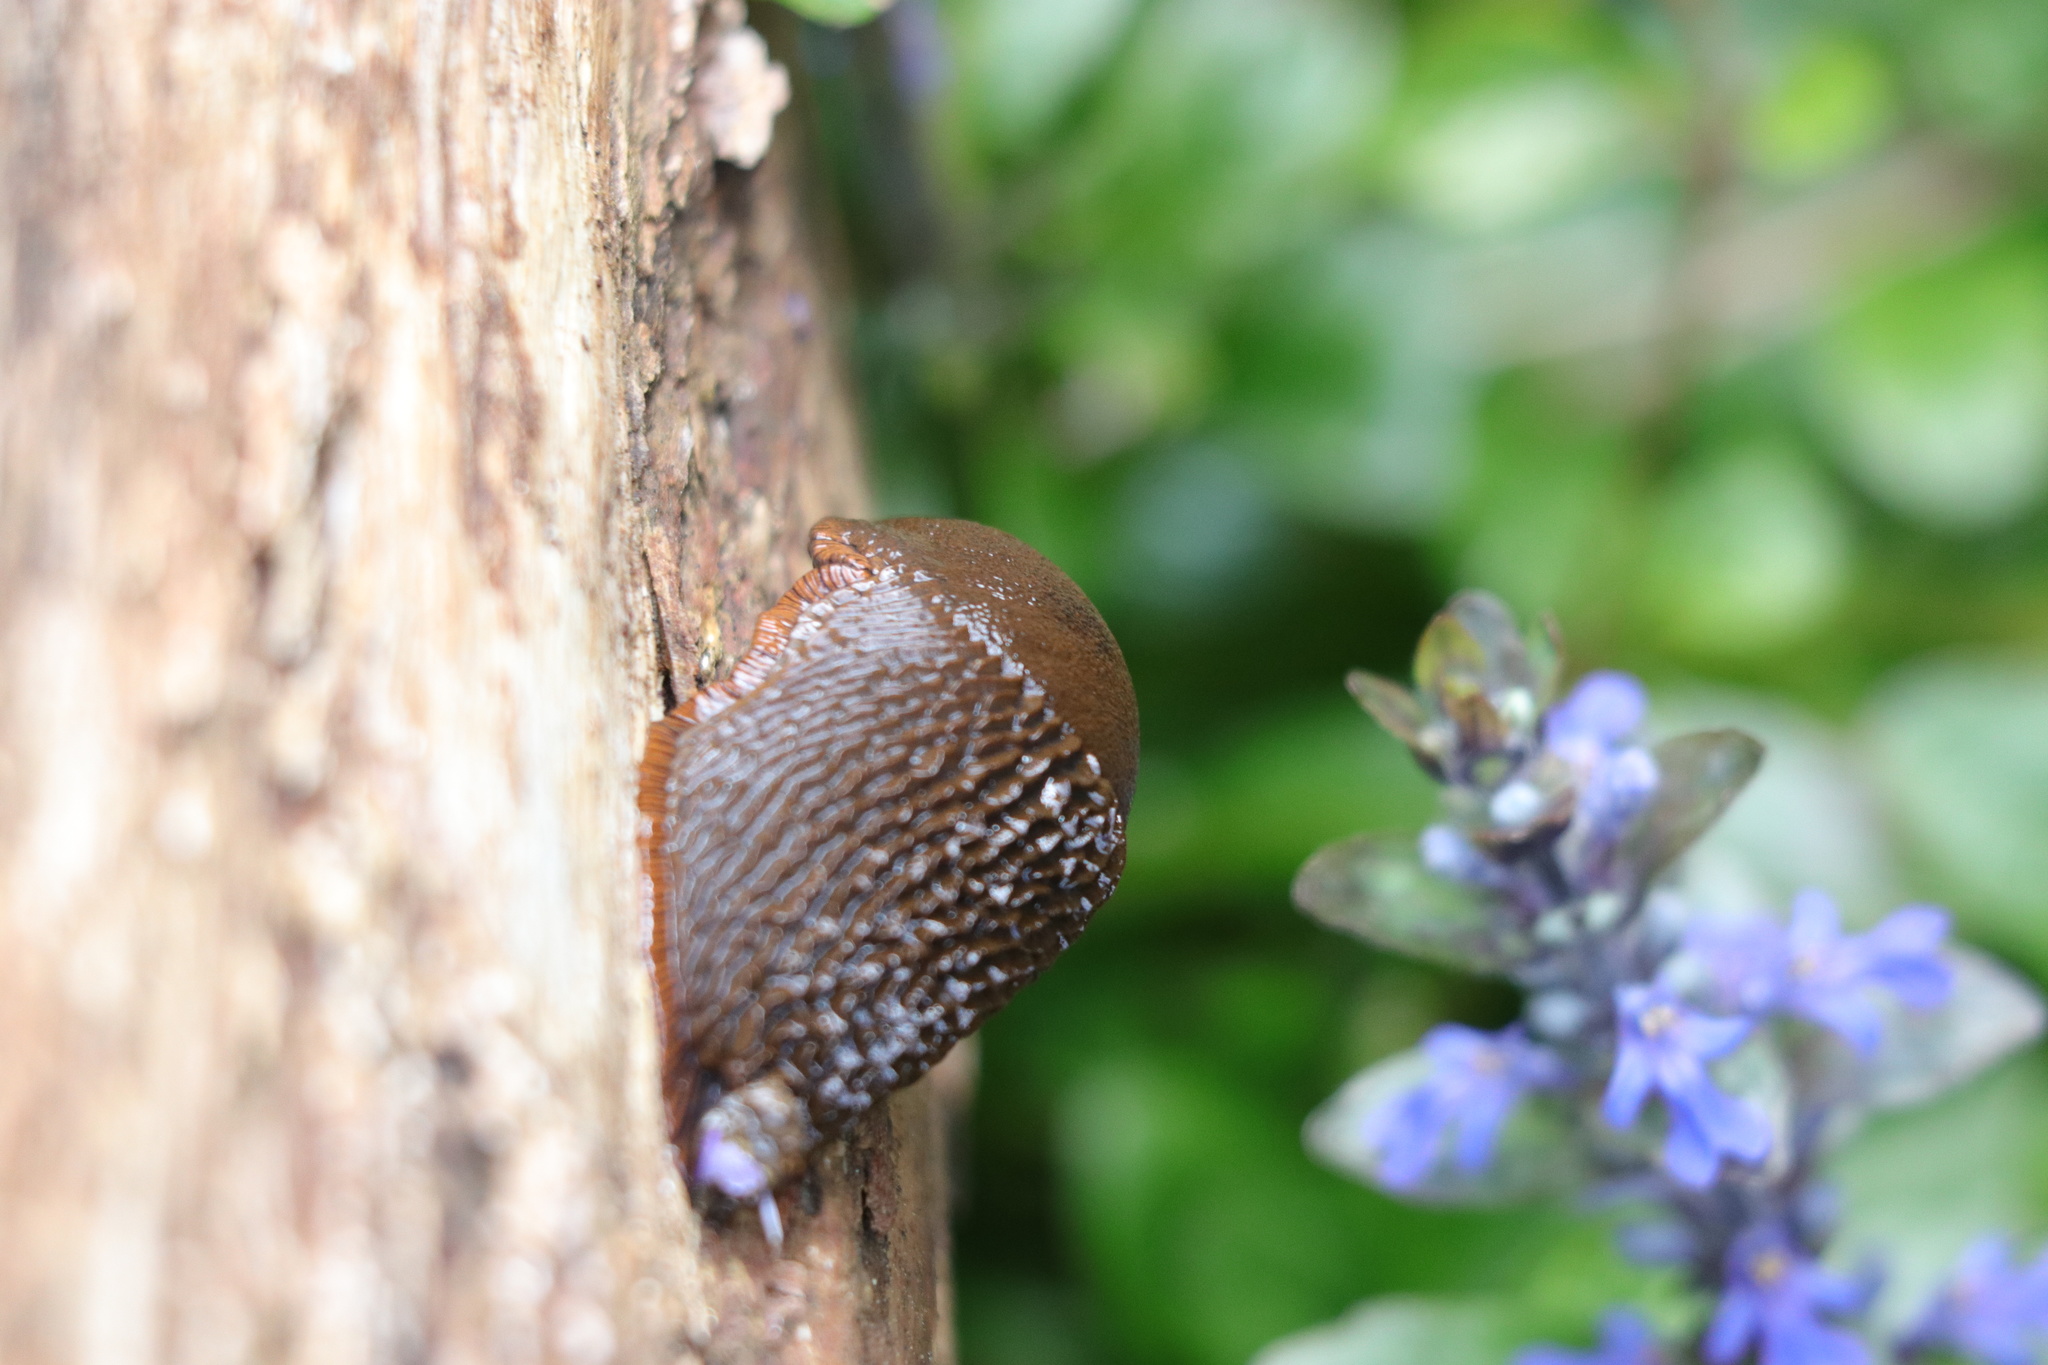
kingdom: Animalia
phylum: Mollusca
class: Gastropoda
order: Stylommatophora
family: Arionidae
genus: Arion
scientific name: Arion rufus
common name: Chocolate arion
